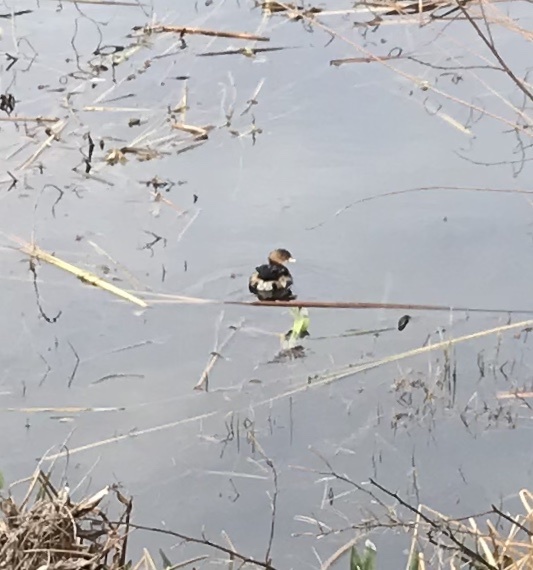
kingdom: Animalia
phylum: Chordata
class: Aves
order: Podicipediformes
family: Podicipedidae
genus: Podilymbus
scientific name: Podilymbus podiceps
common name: Pied-billed grebe
